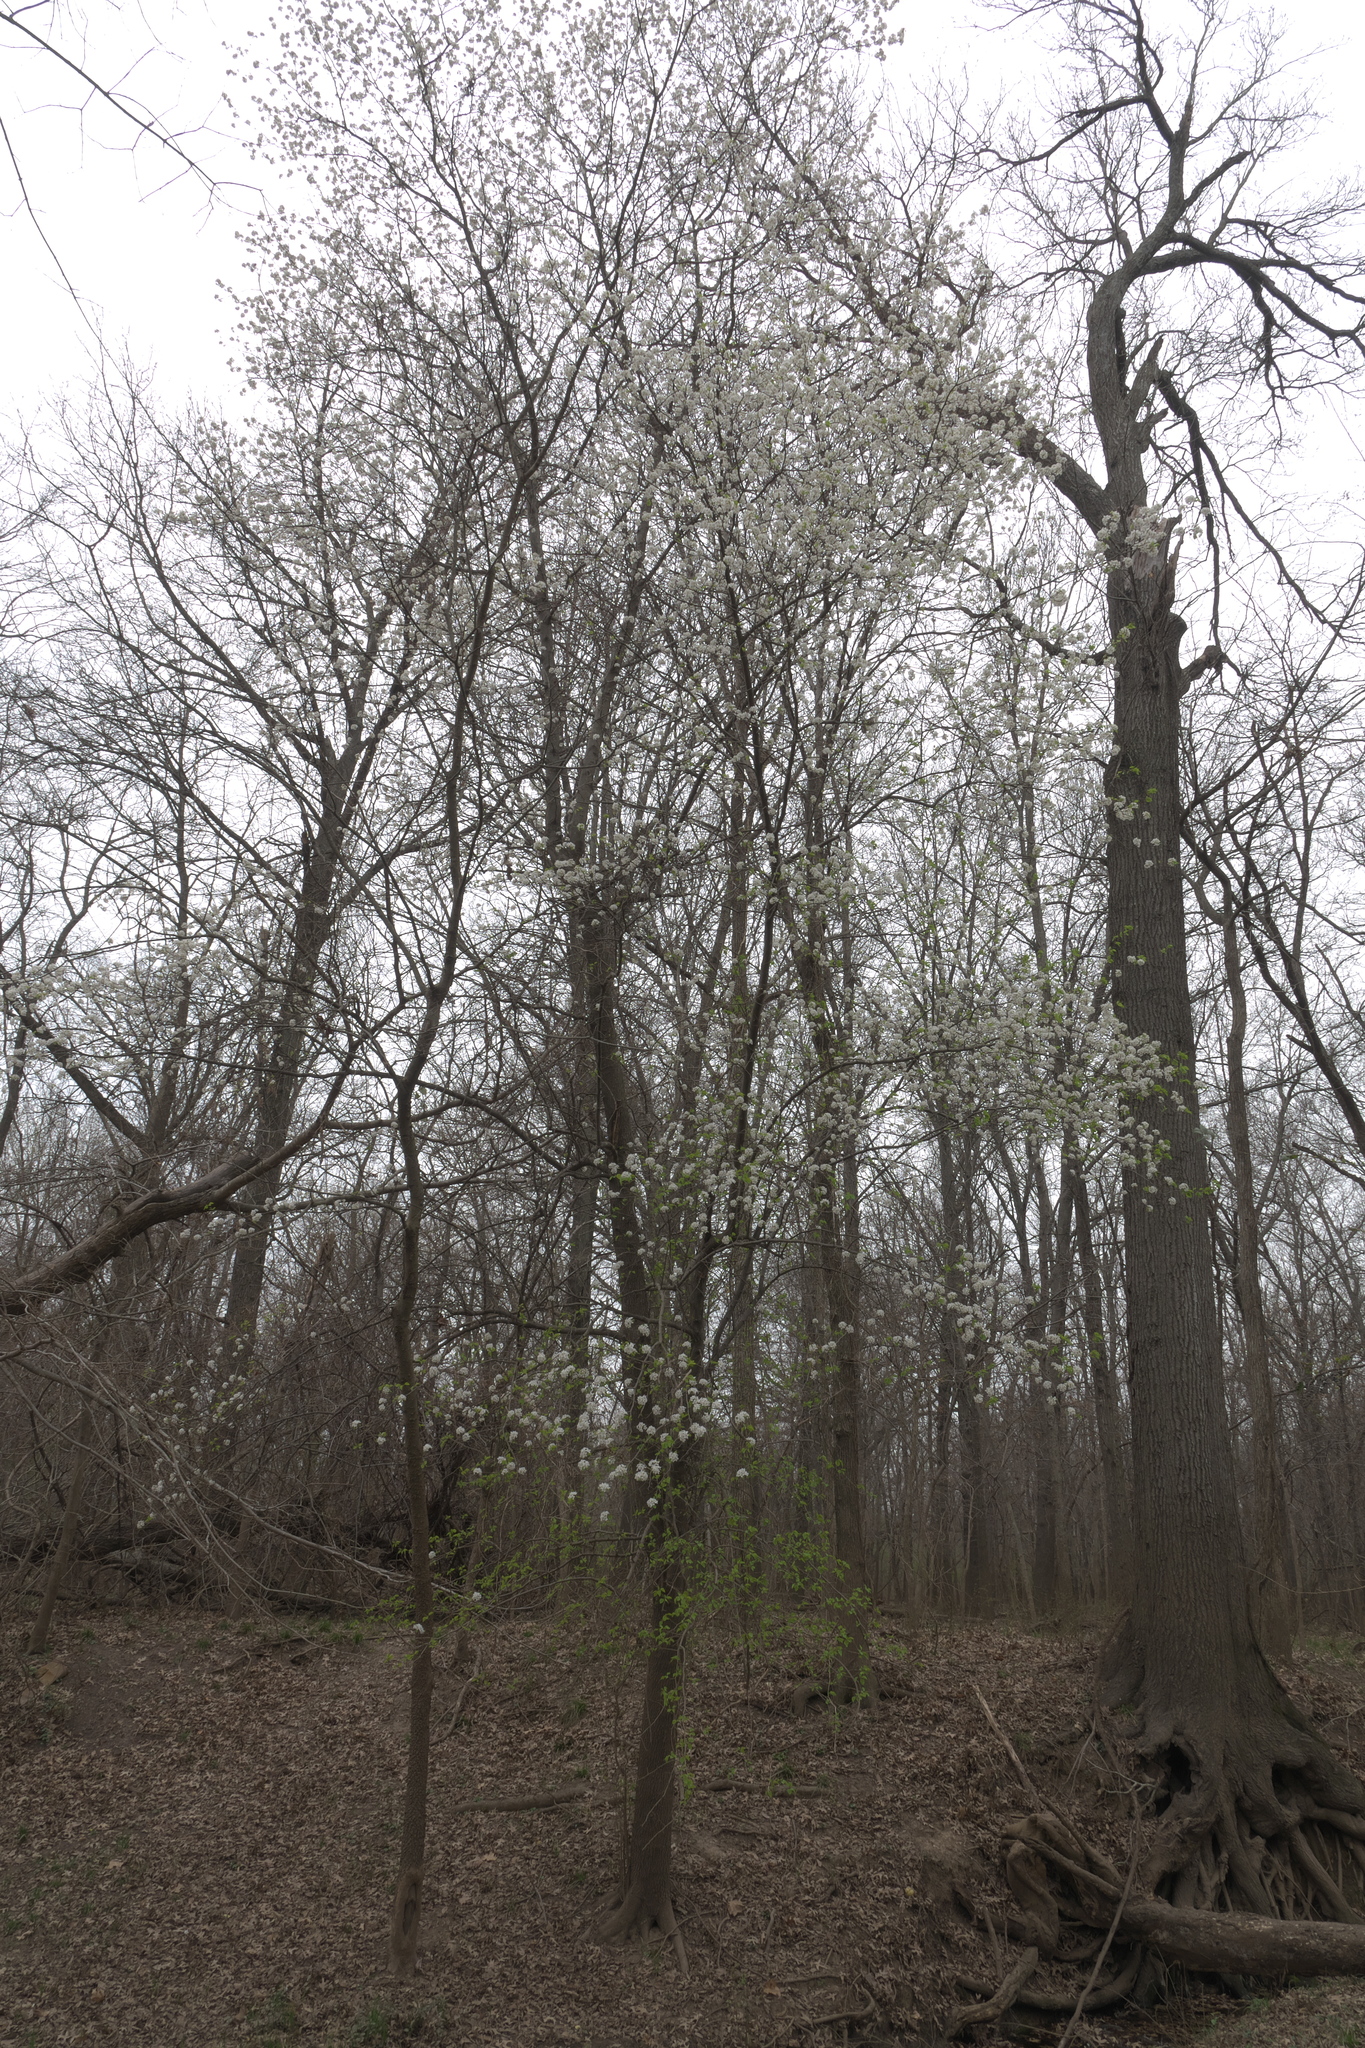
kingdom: Plantae
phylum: Tracheophyta
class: Magnoliopsida
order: Rosales
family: Rosaceae
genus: Pyrus
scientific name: Pyrus calleryana
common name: Callery pear
